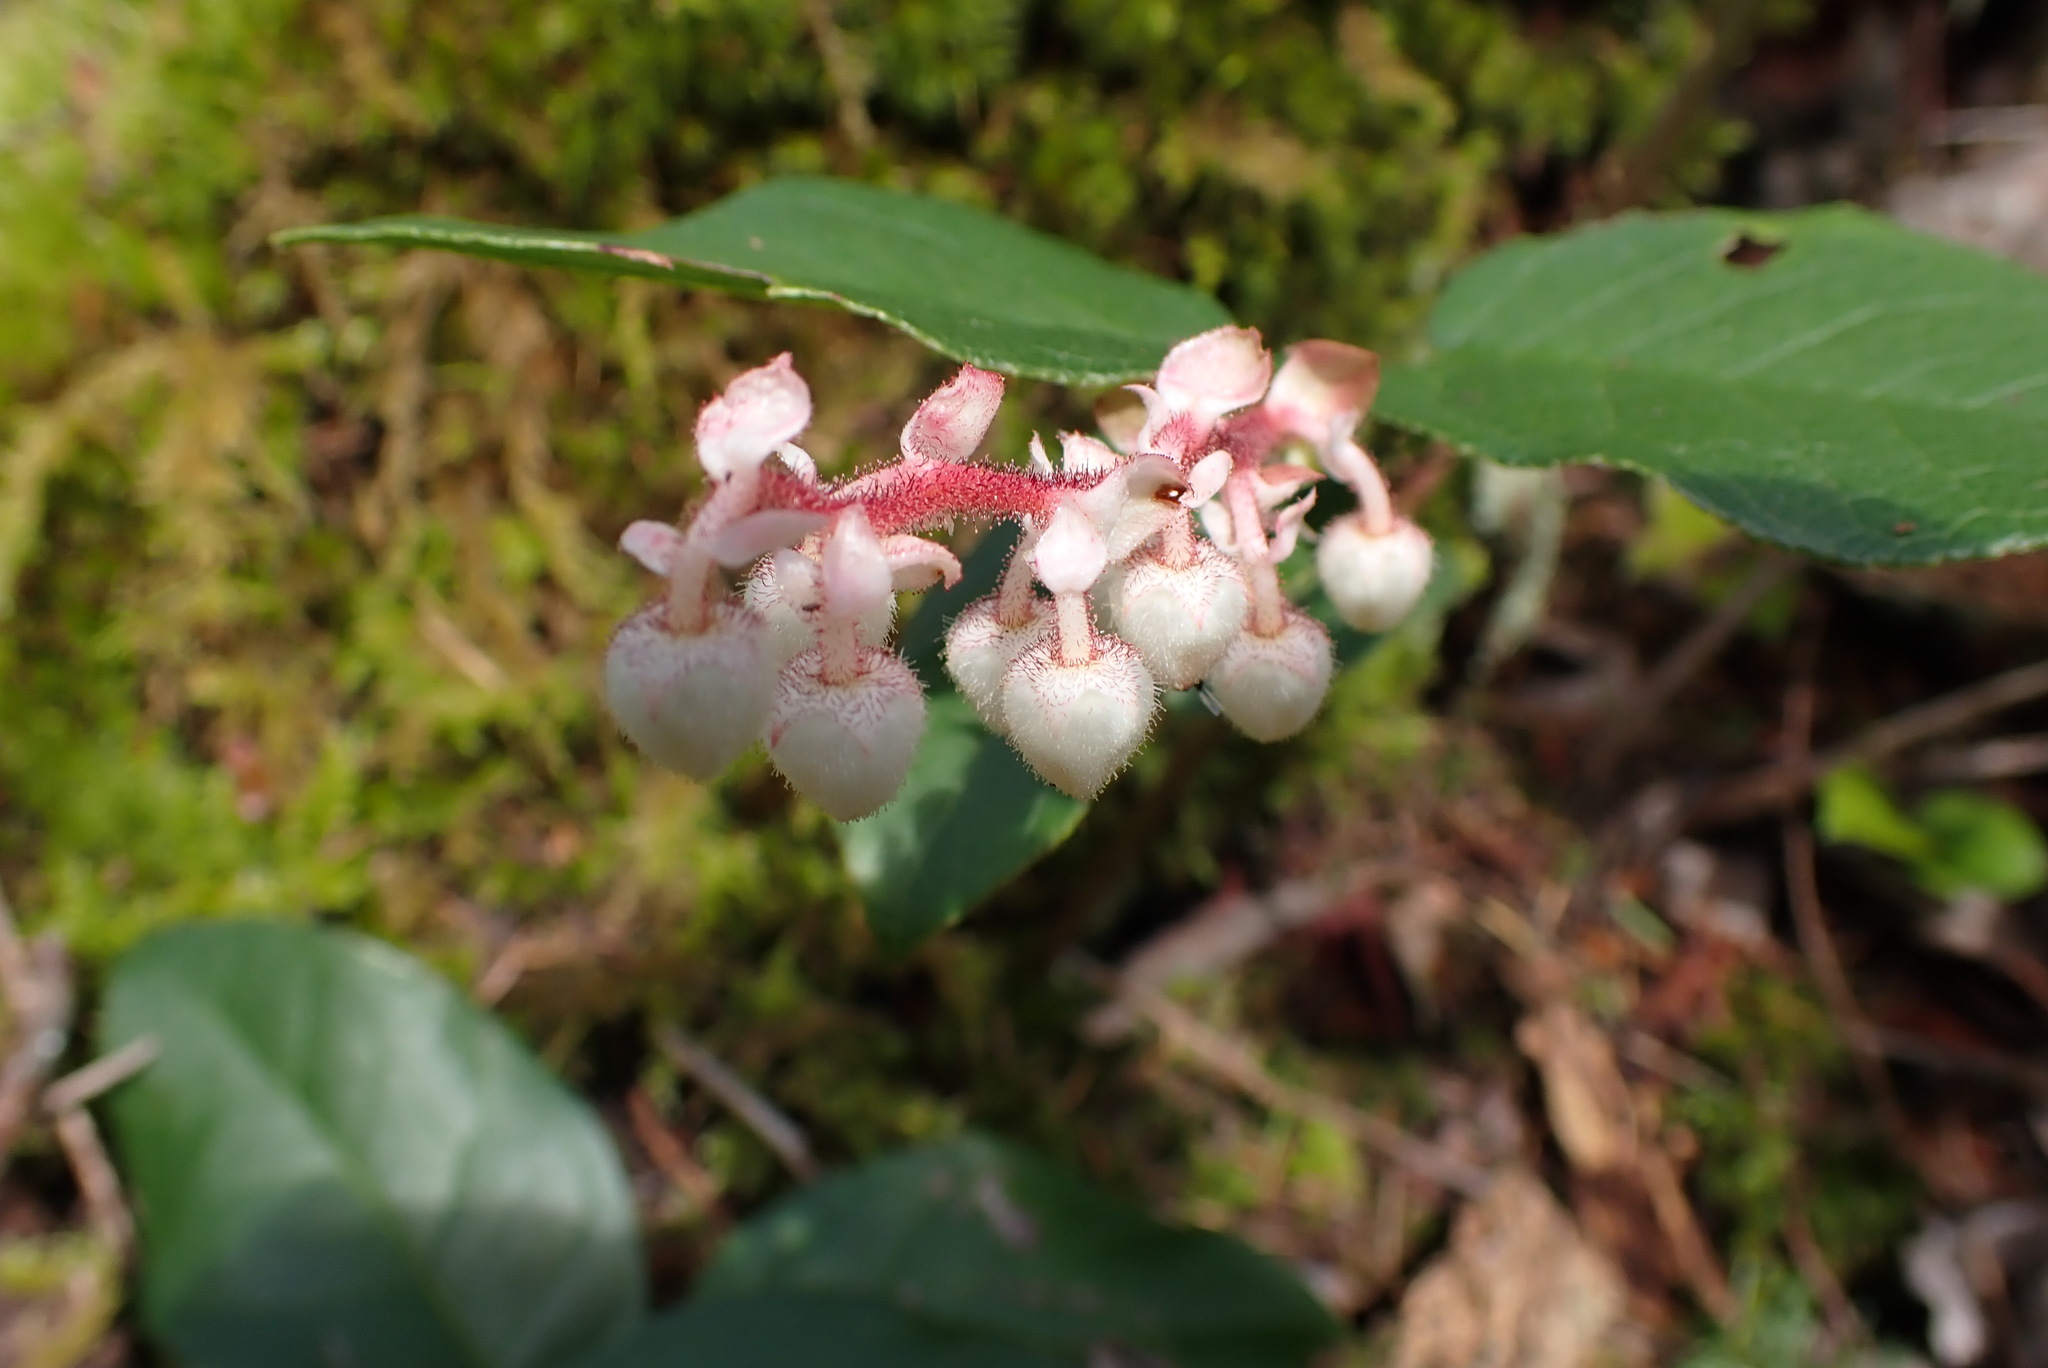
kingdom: Plantae
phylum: Tracheophyta
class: Magnoliopsida
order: Ericales
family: Ericaceae
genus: Gaultheria
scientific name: Gaultheria shallon
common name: Shallon
